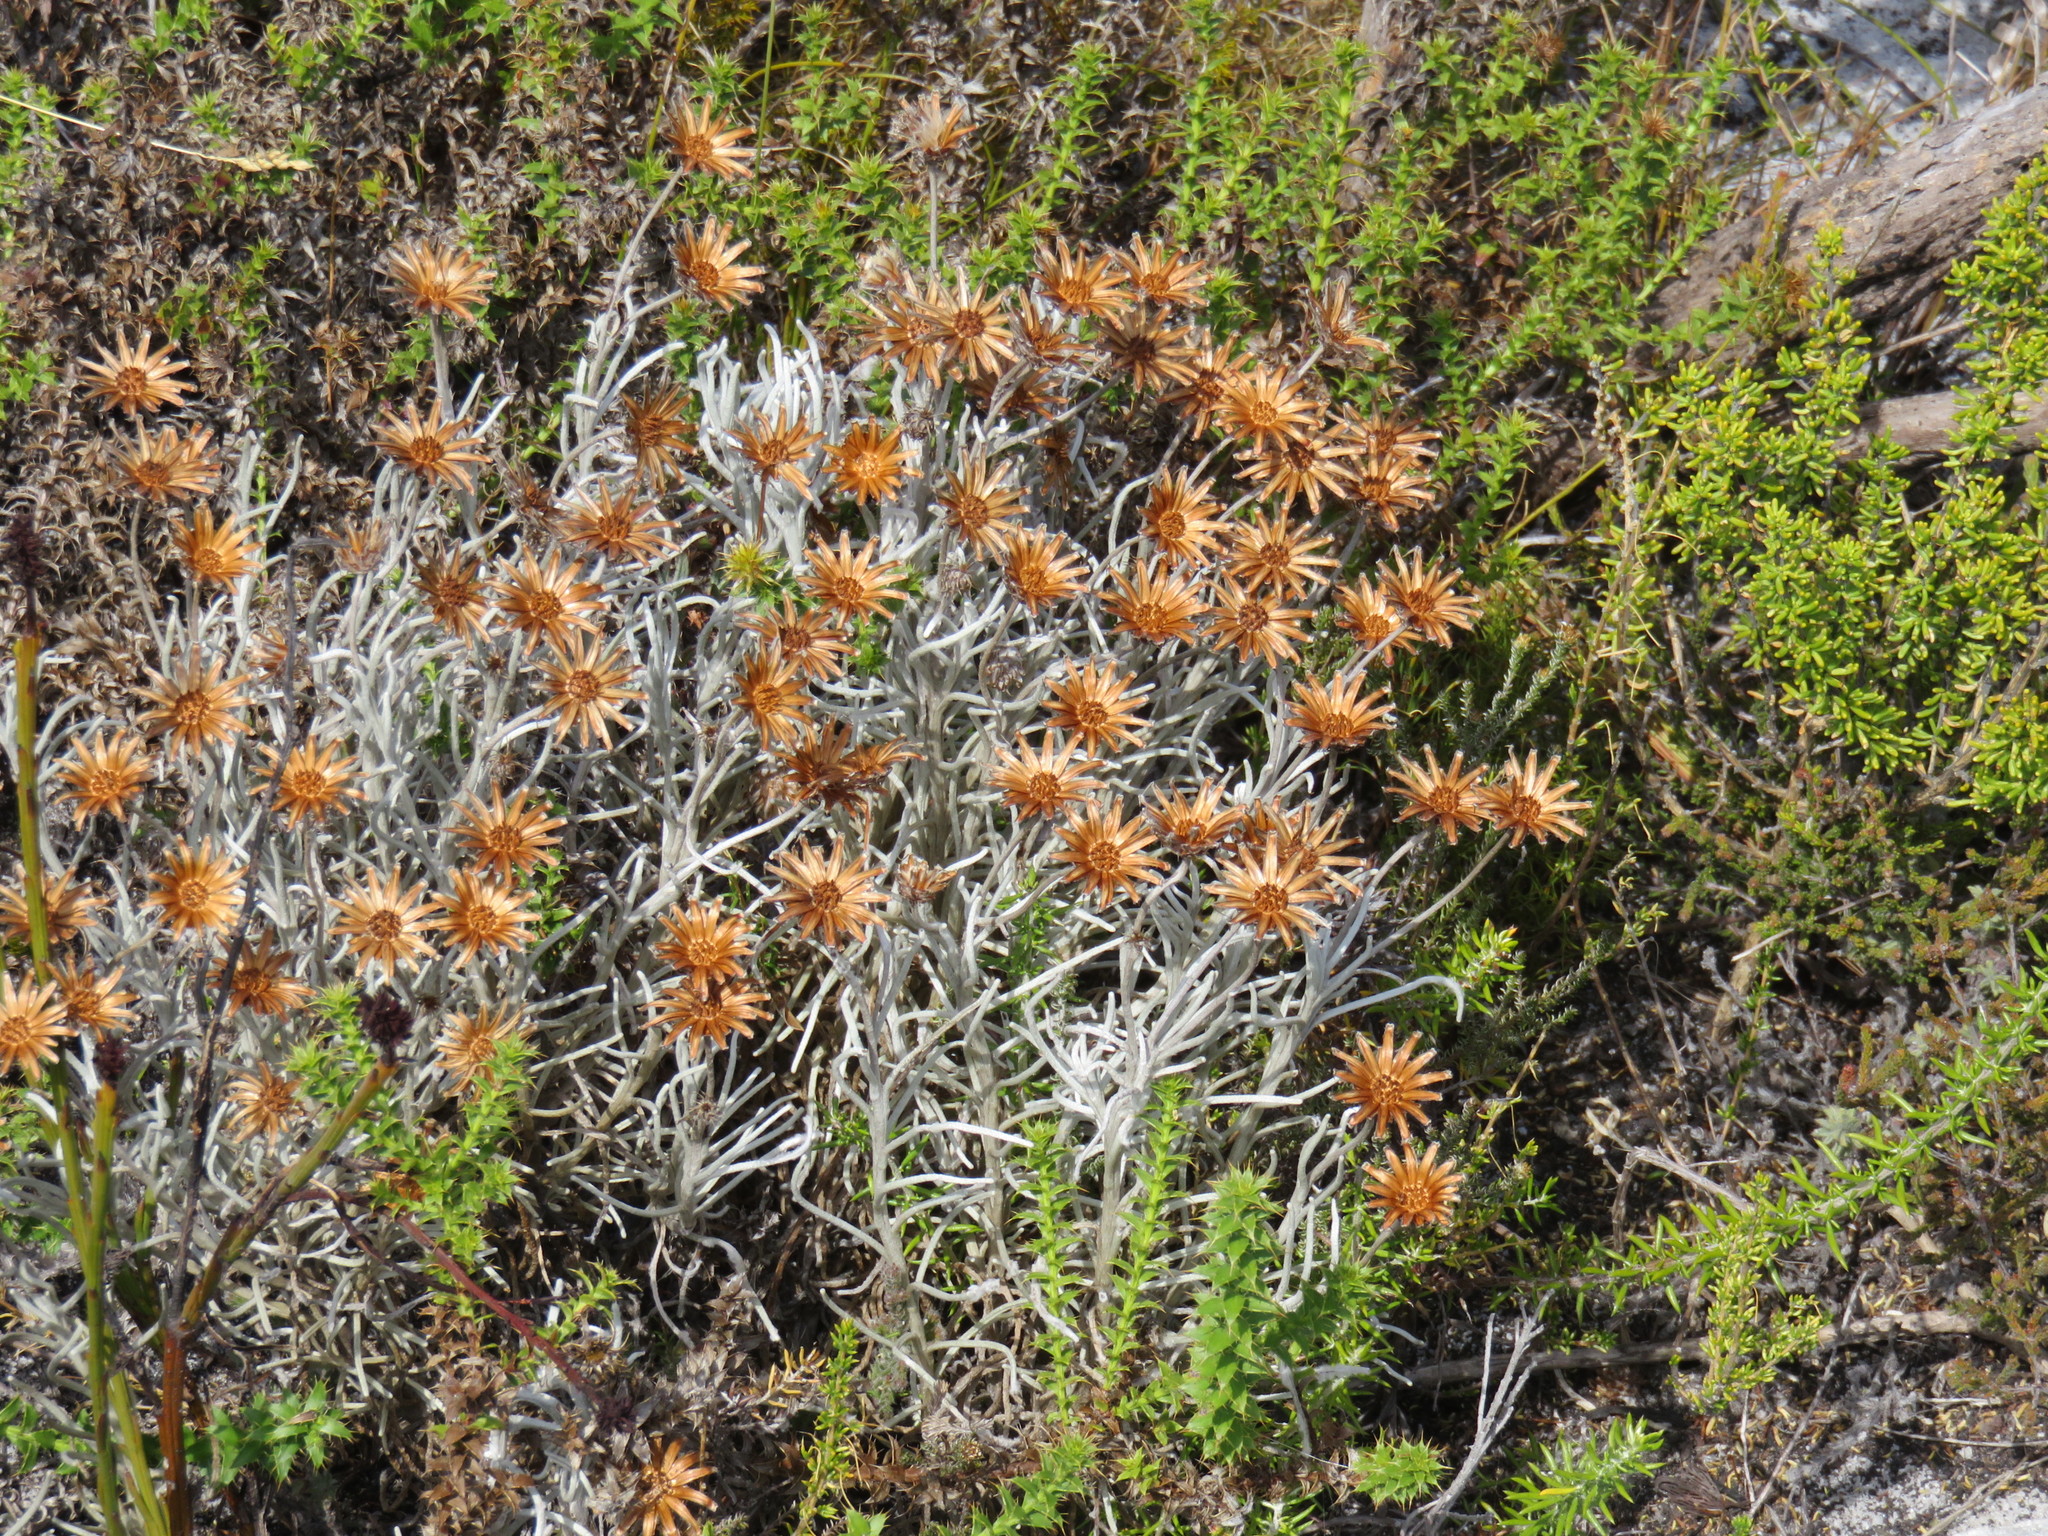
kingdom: Plantae
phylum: Tracheophyta
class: Magnoliopsida
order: Asterales
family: Asteraceae
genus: Syncarpha
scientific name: Syncarpha gnaphaloides
